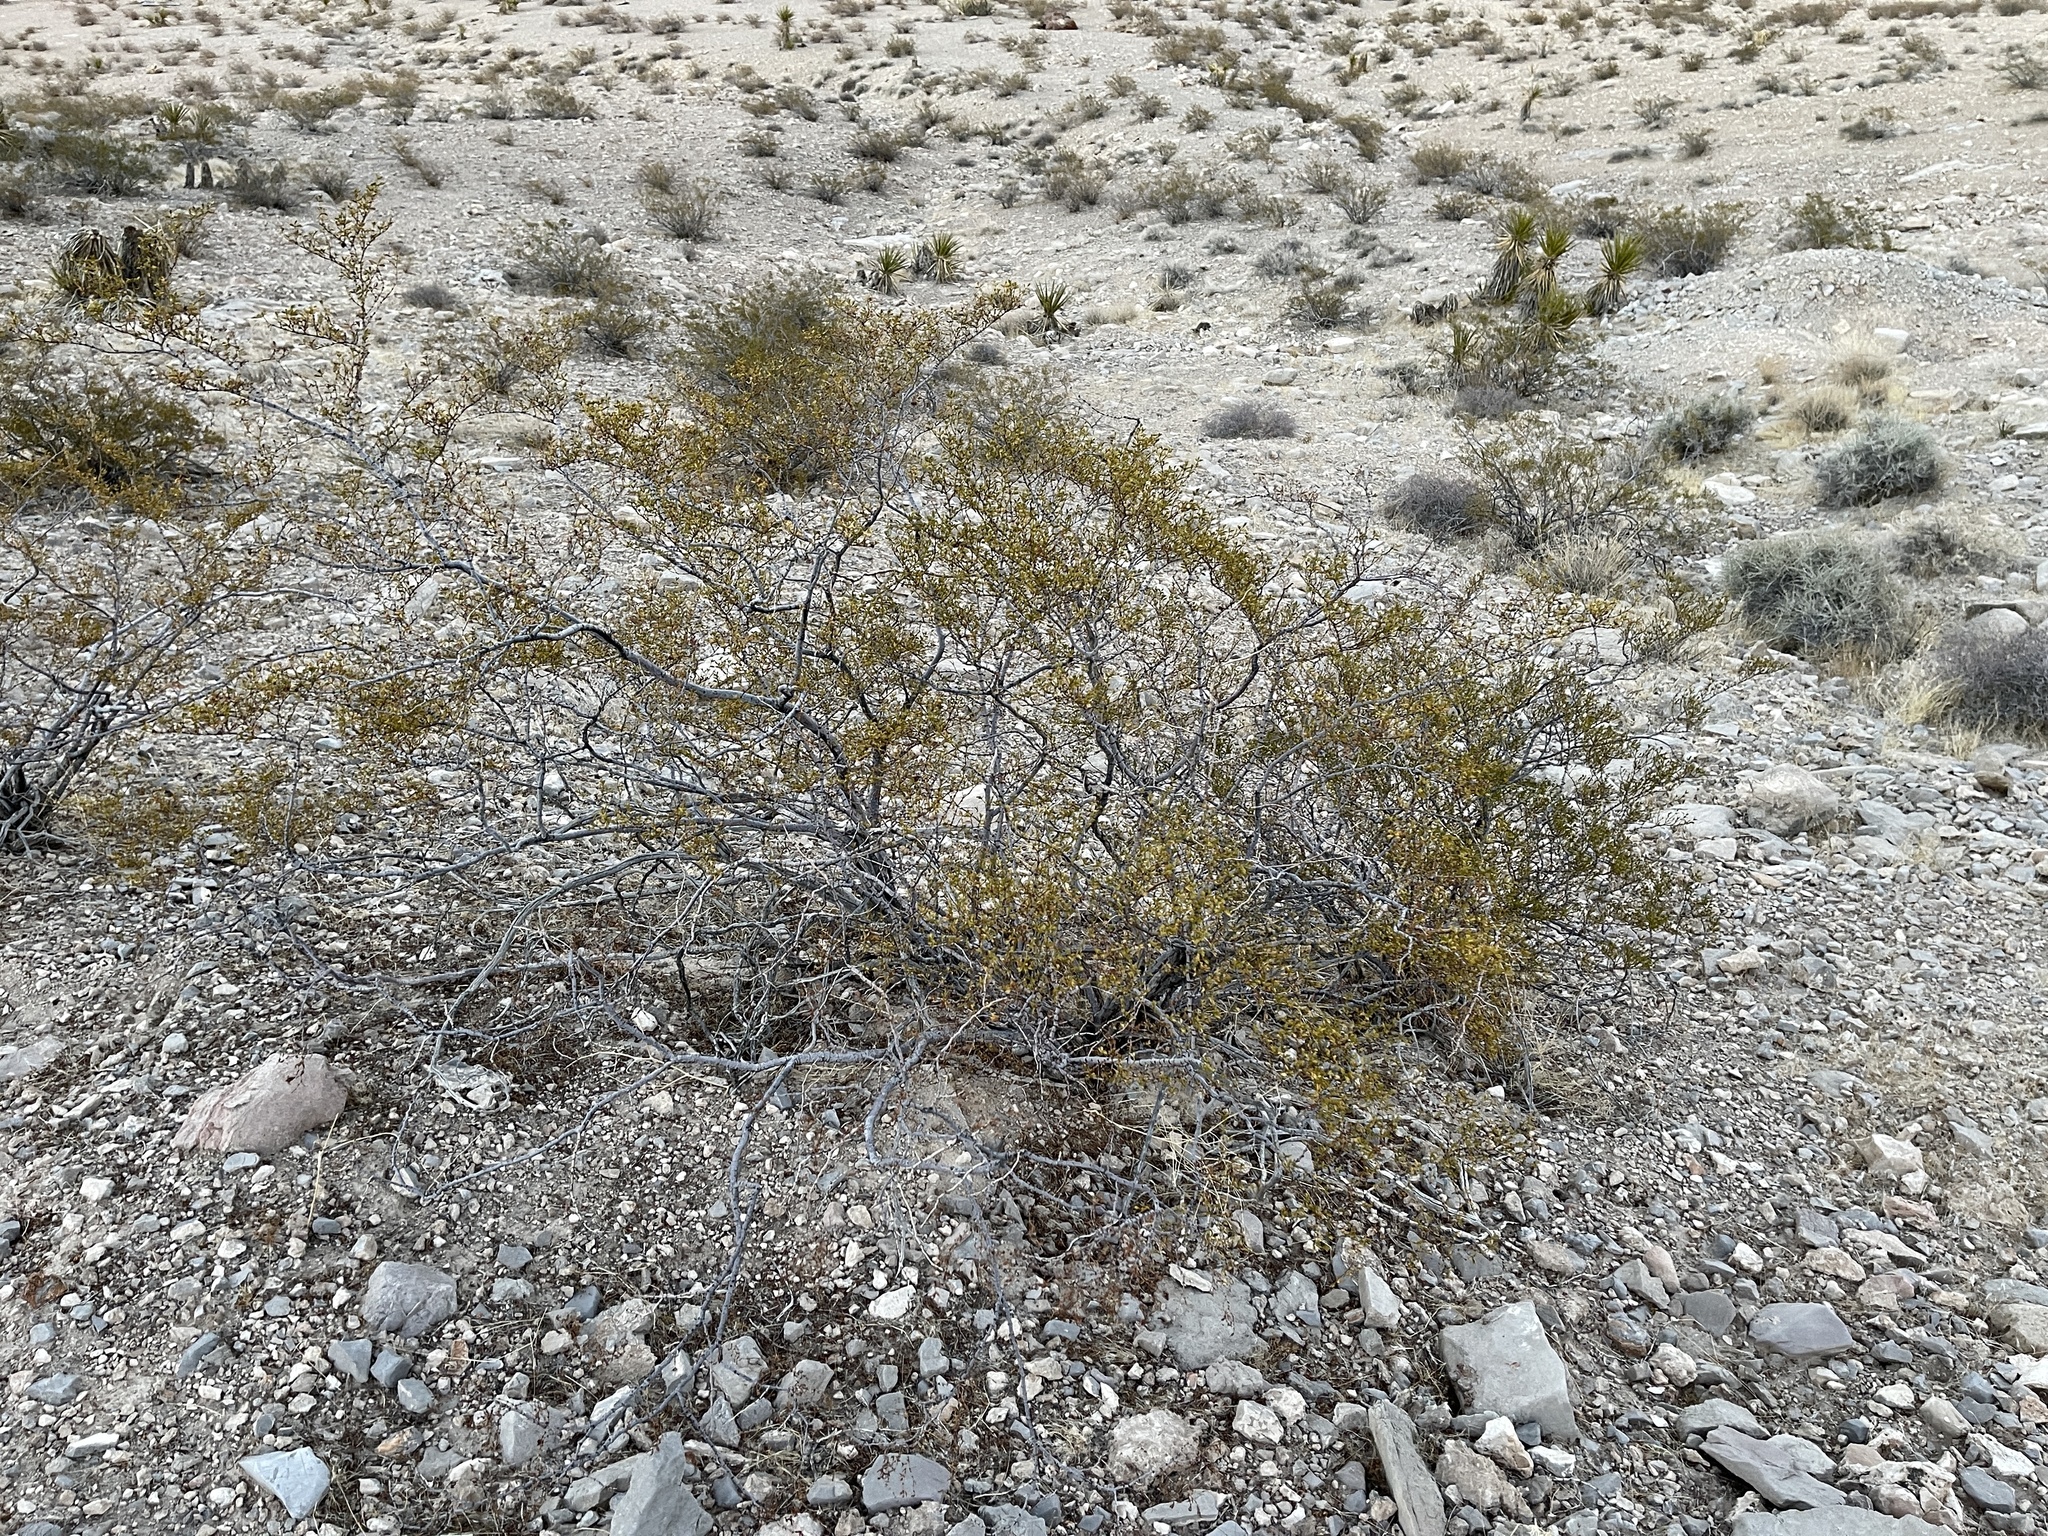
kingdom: Plantae
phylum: Tracheophyta
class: Magnoliopsida
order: Zygophyllales
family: Zygophyllaceae
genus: Larrea
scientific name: Larrea tridentata
